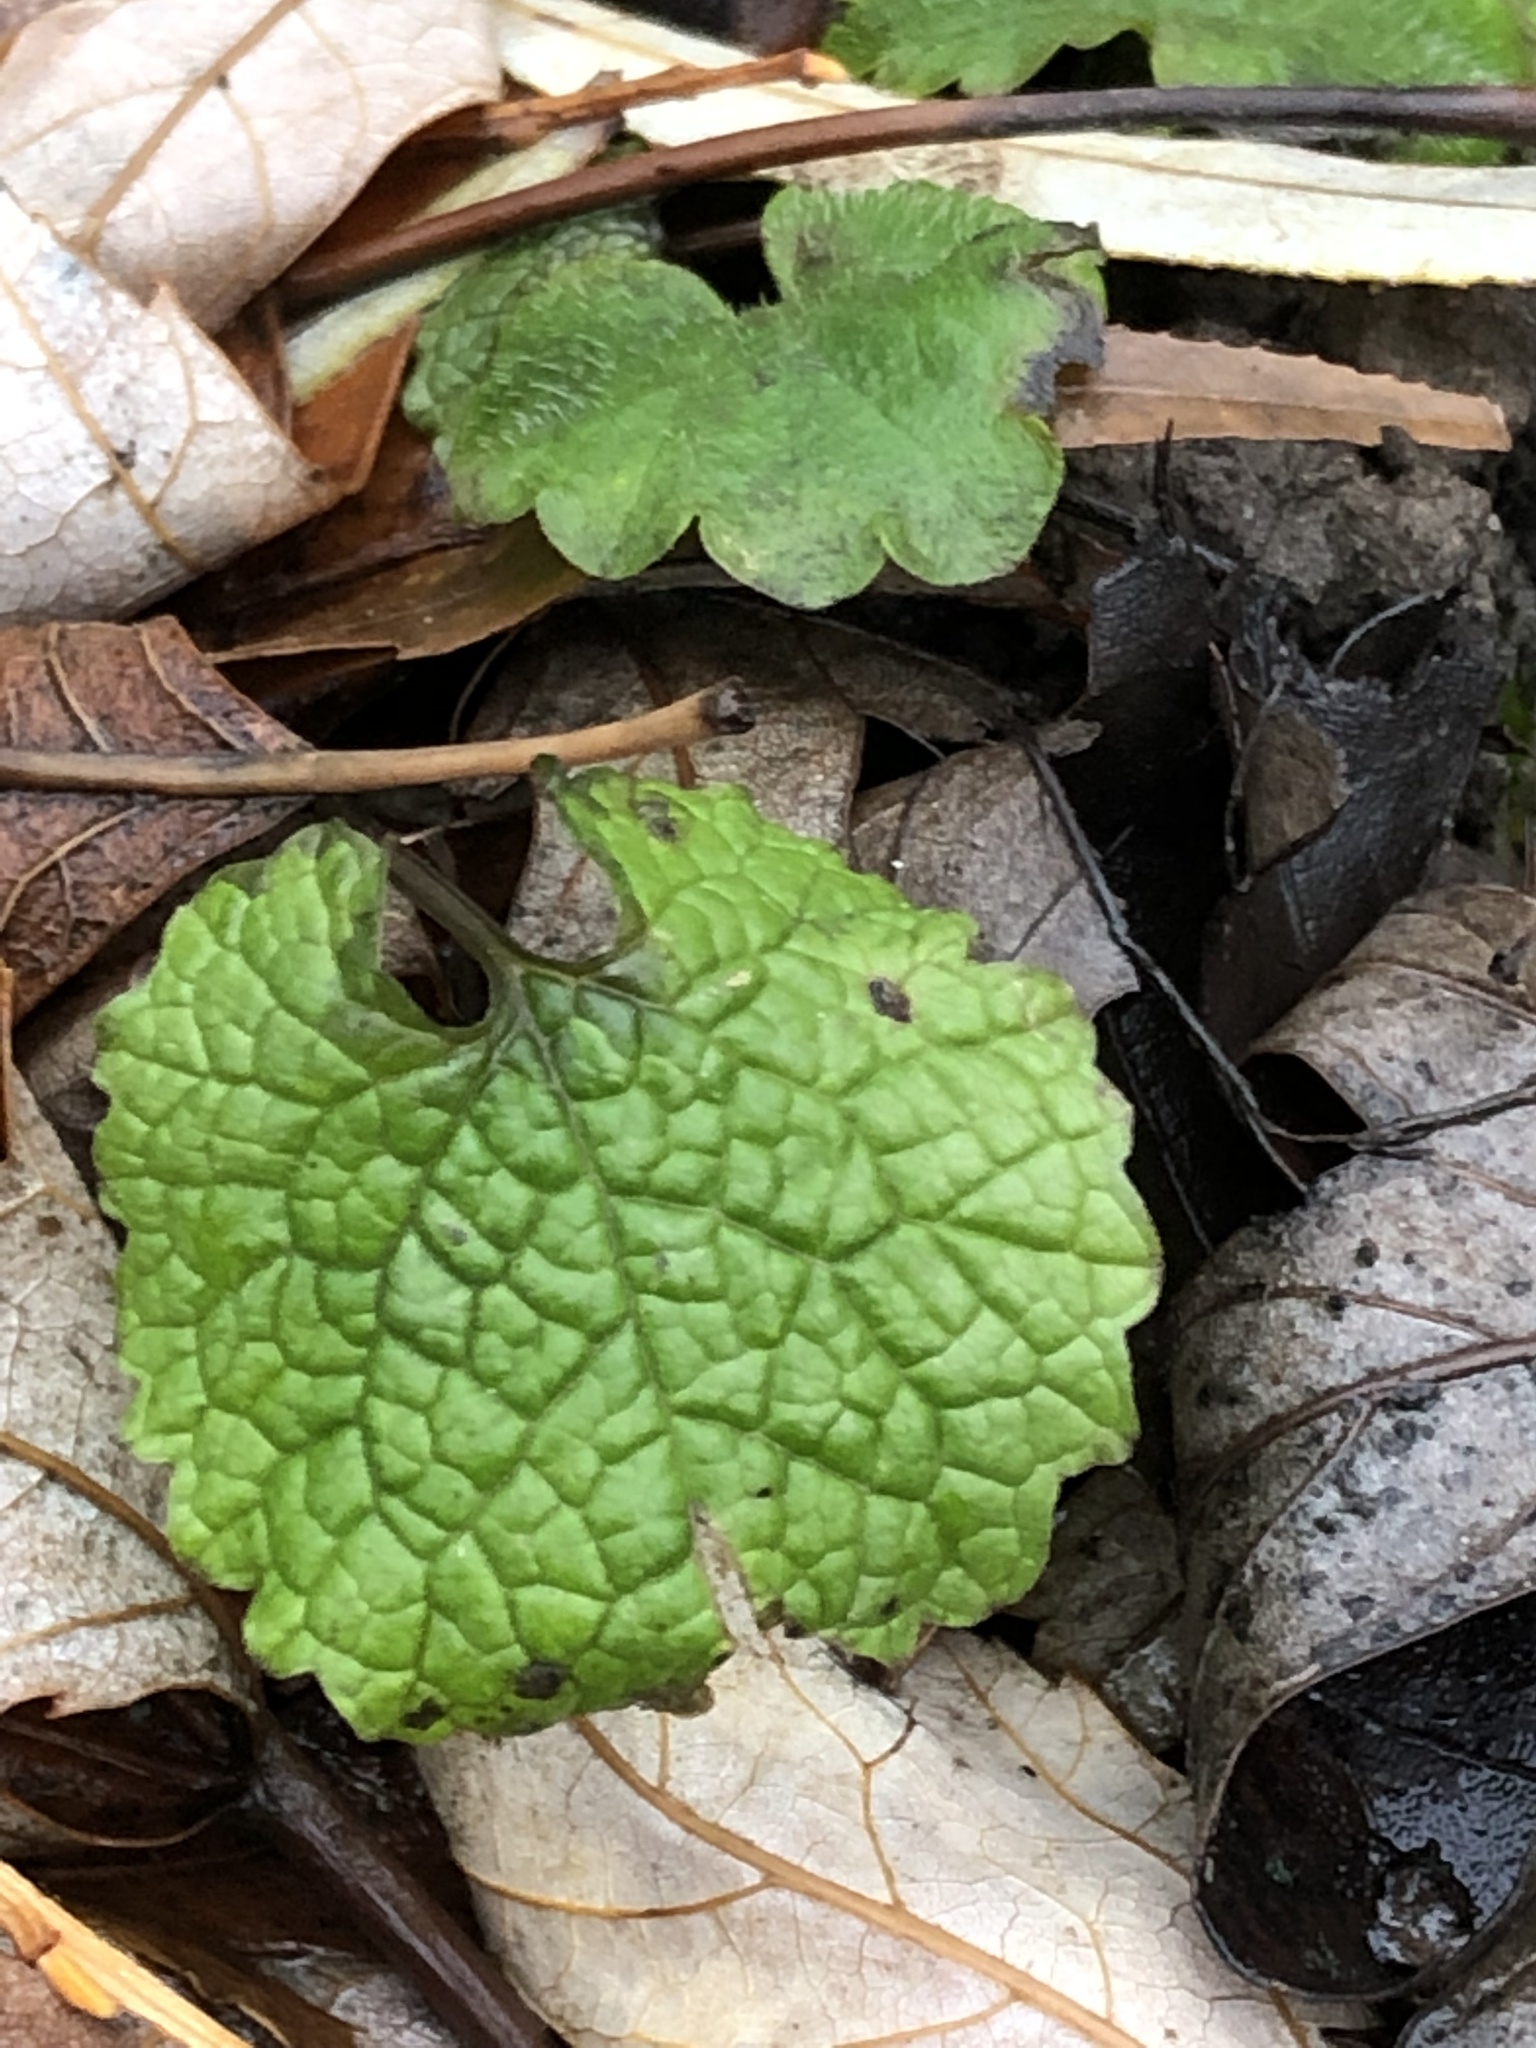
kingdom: Plantae
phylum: Tracheophyta
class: Magnoliopsida
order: Brassicales
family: Brassicaceae
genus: Alliaria
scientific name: Alliaria petiolata
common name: Garlic mustard
